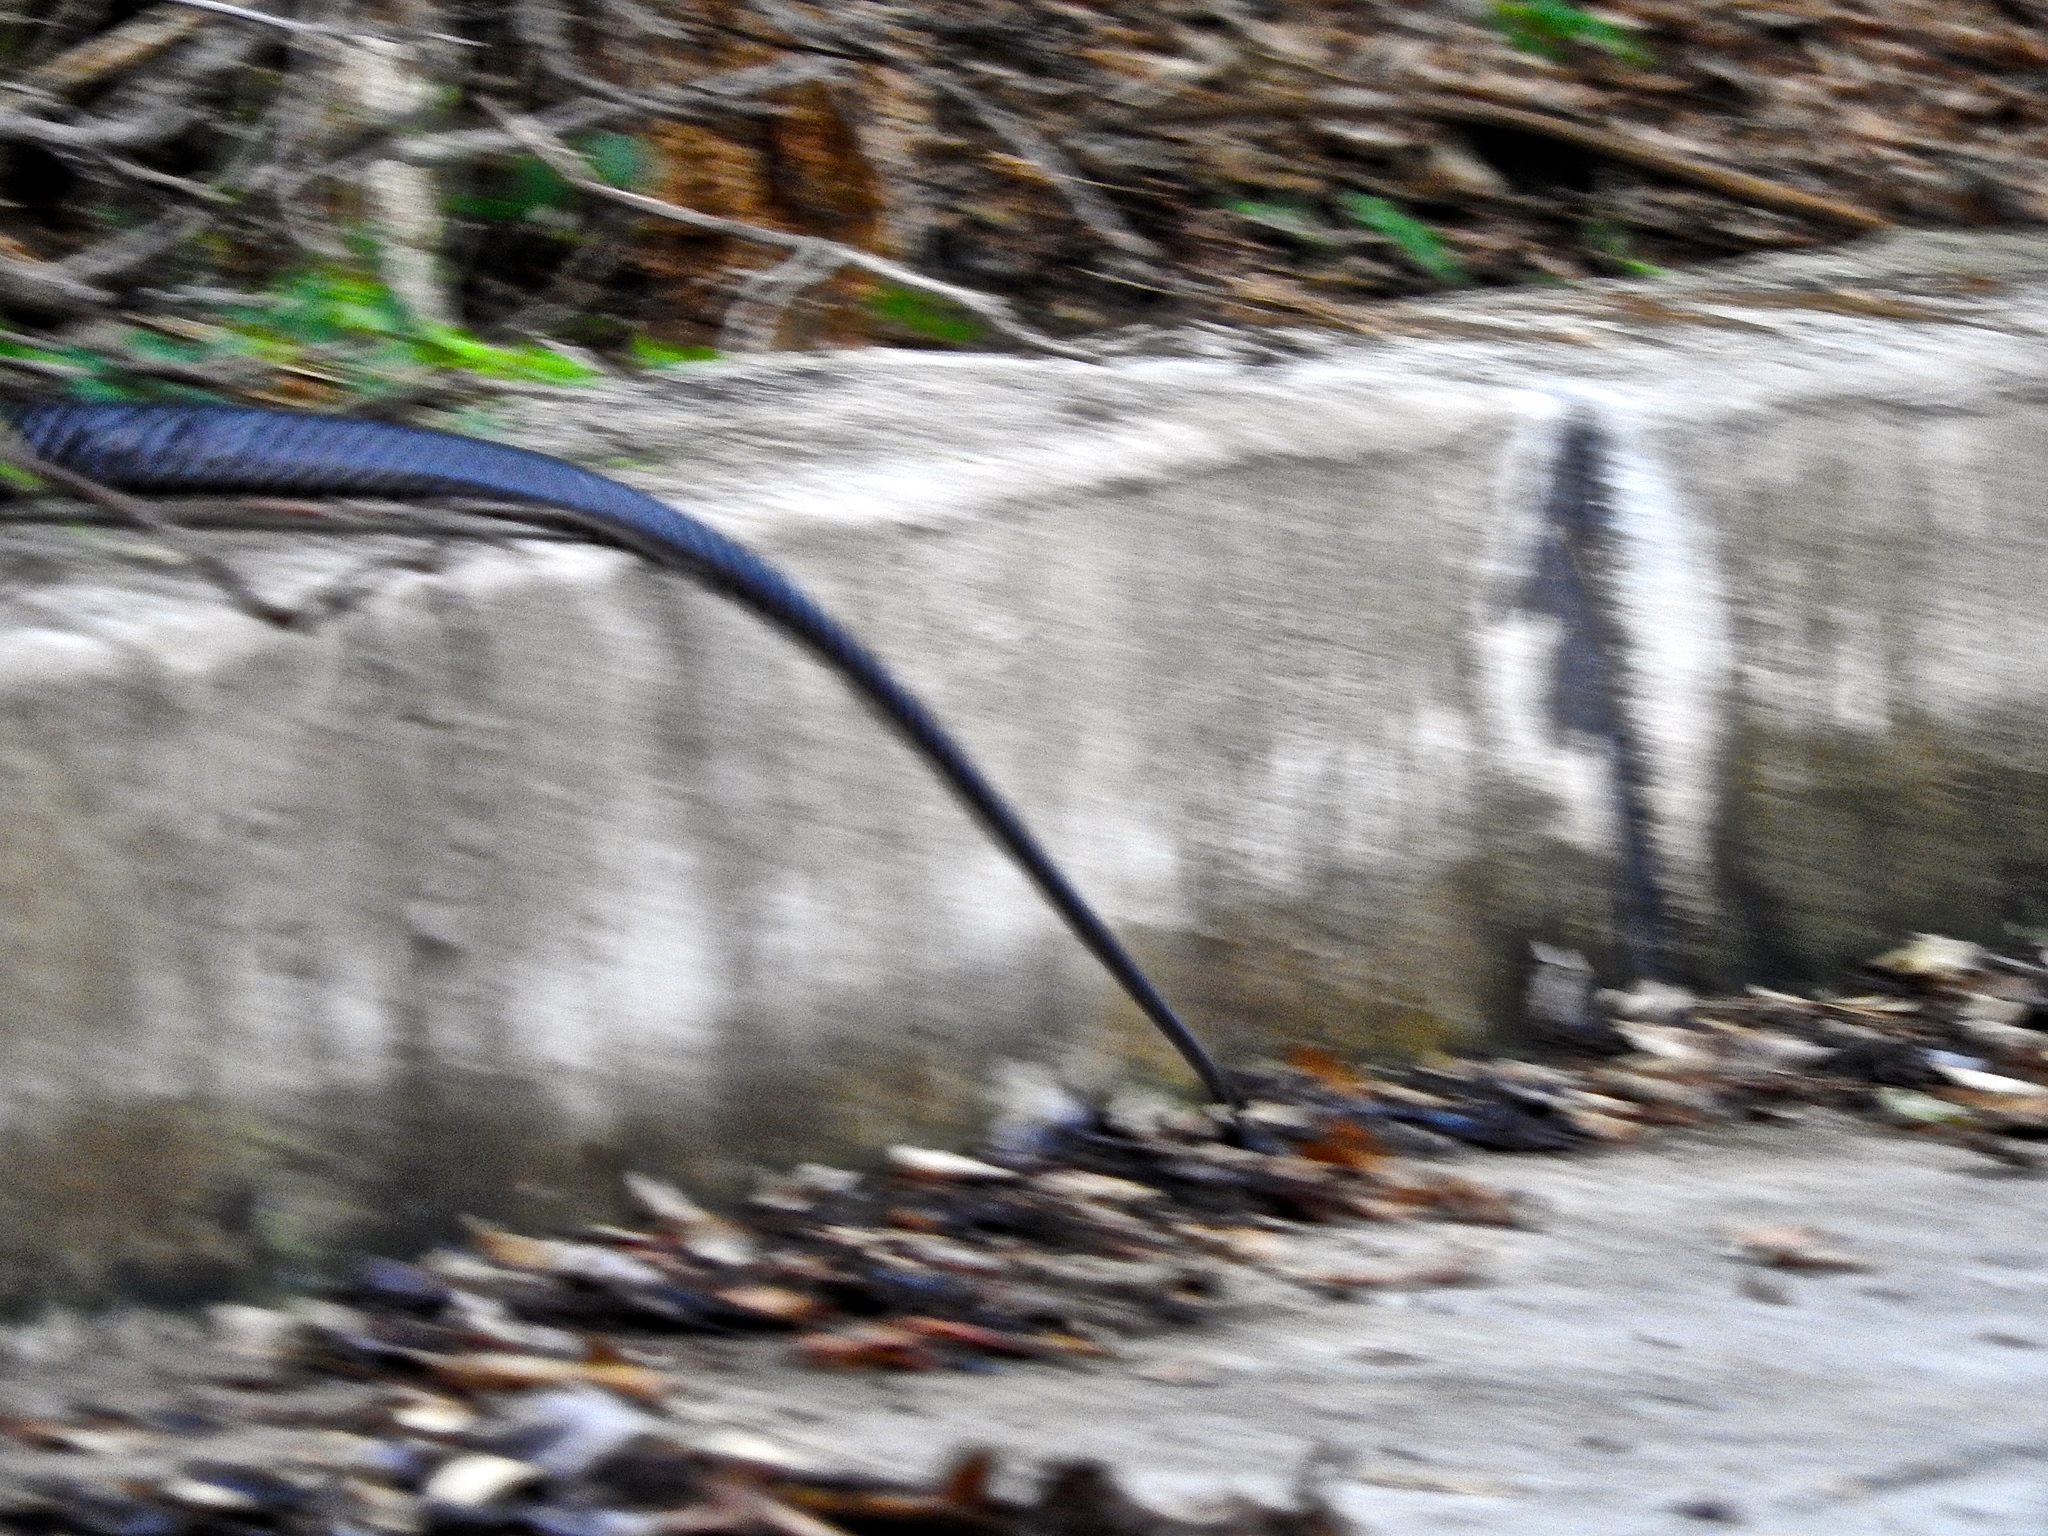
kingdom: Animalia
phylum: Chordata
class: Squamata
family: Colubridae
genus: Drymarchon
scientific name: Drymarchon melanurus
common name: Central american indigo snake
